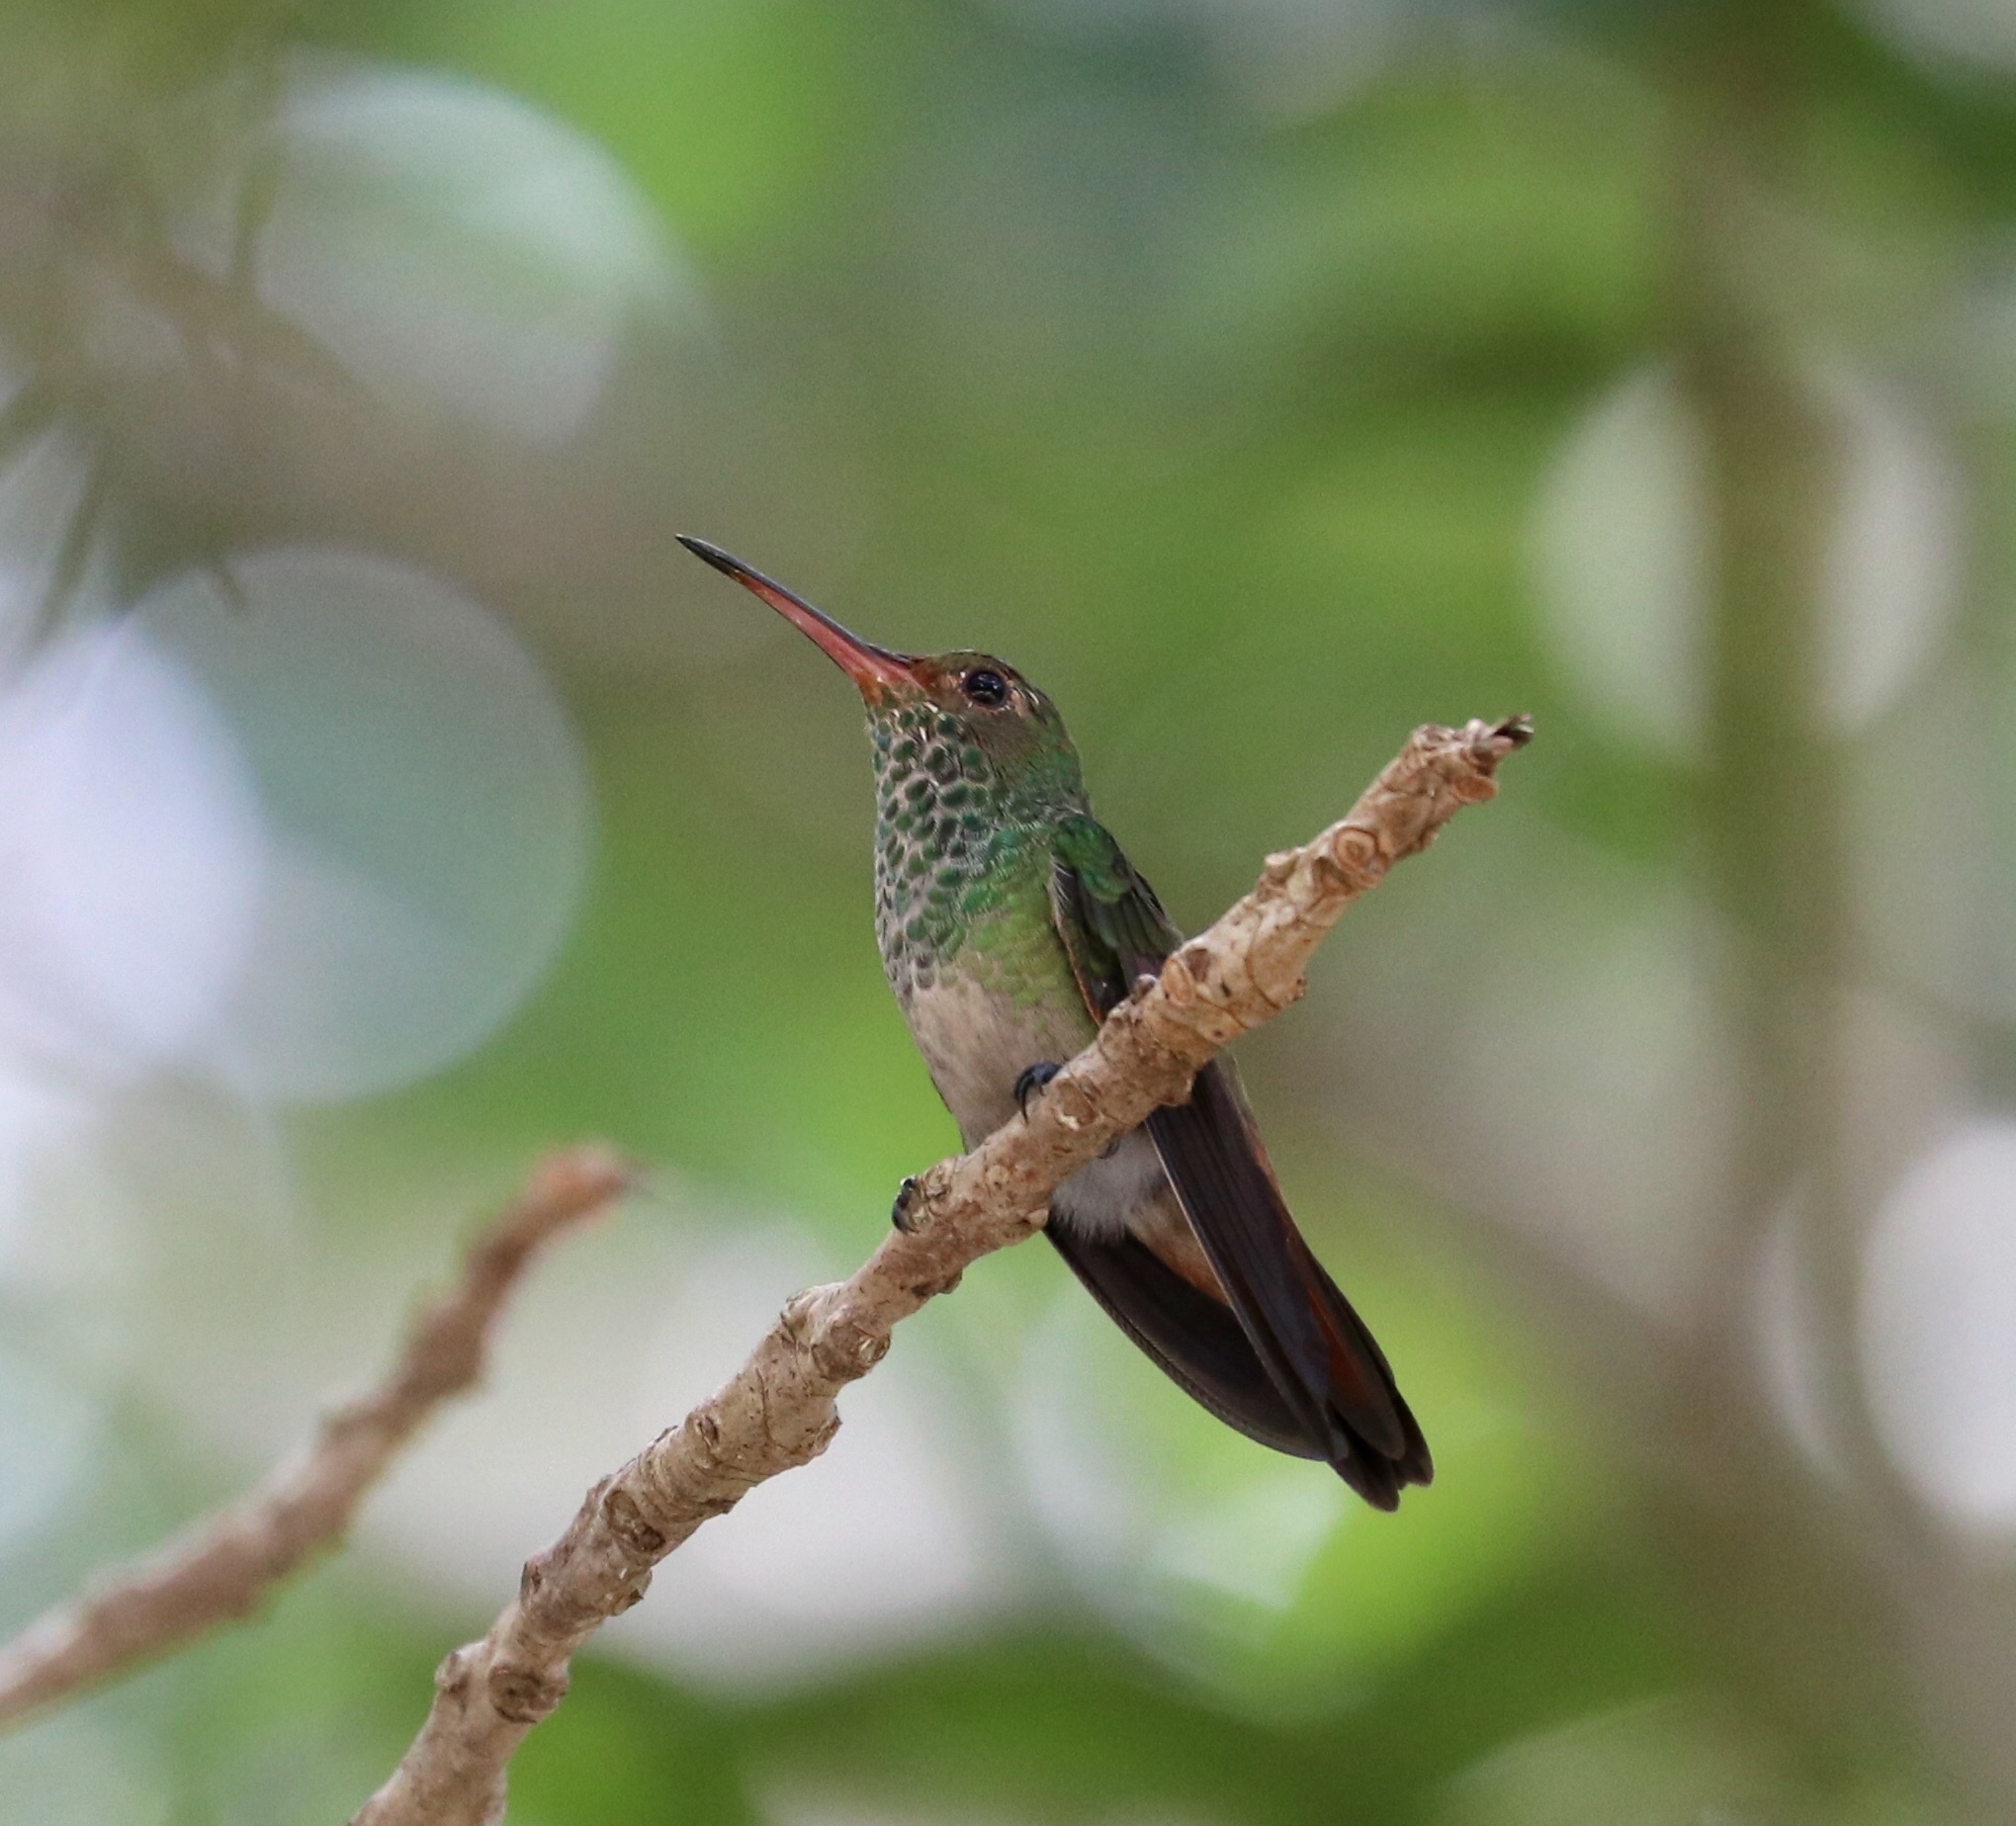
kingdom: Animalia
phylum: Chordata
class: Aves
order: Apodiformes
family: Trochilidae
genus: Amazilia
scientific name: Amazilia tzacatl
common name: Rufous-tailed hummingbird
